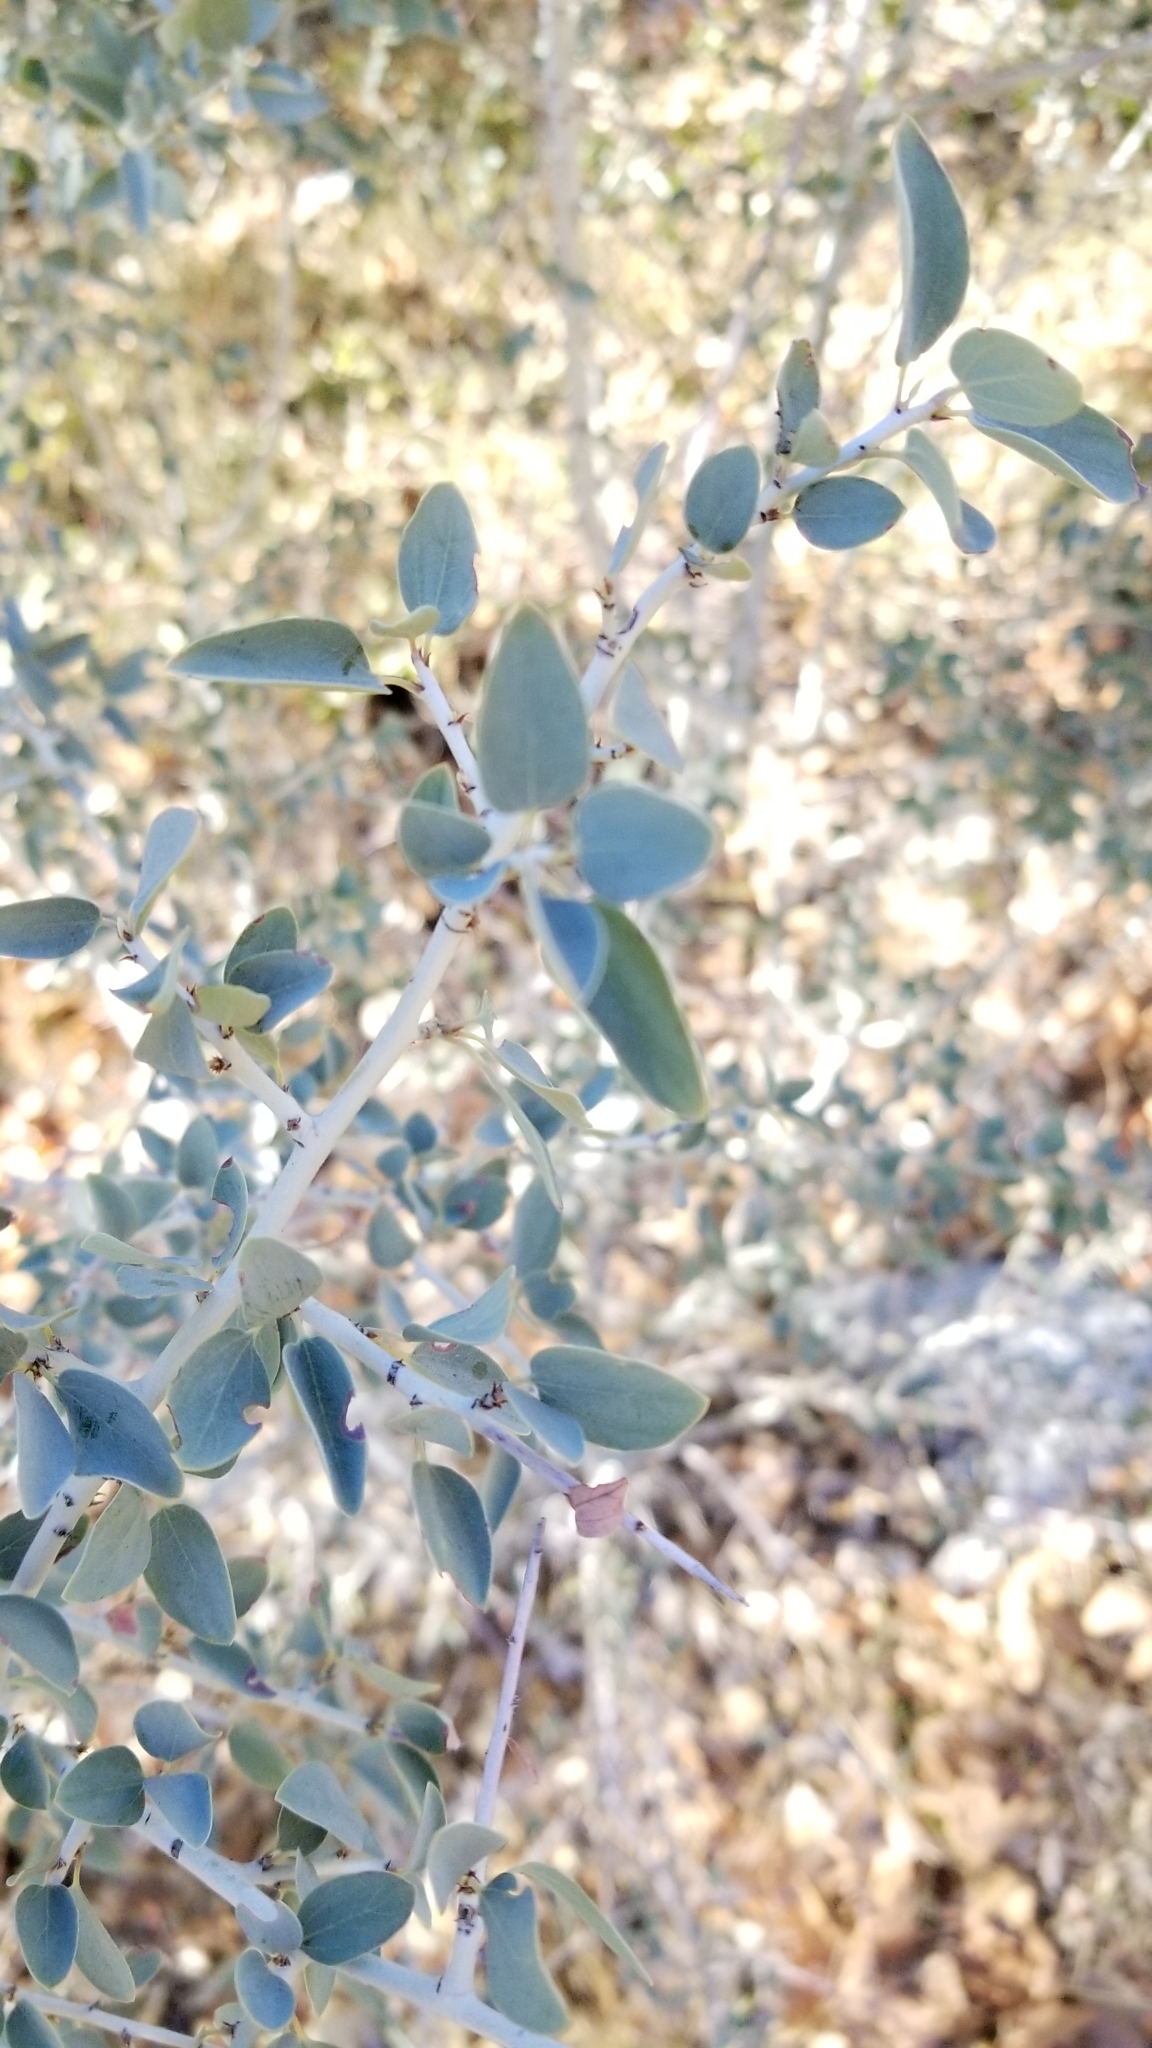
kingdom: Plantae
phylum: Tracheophyta
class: Magnoliopsida
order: Rosales
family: Rhamnaceae
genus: Ceanothus
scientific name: Ceanothus leucodermis
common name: Chaparral whitethorn
